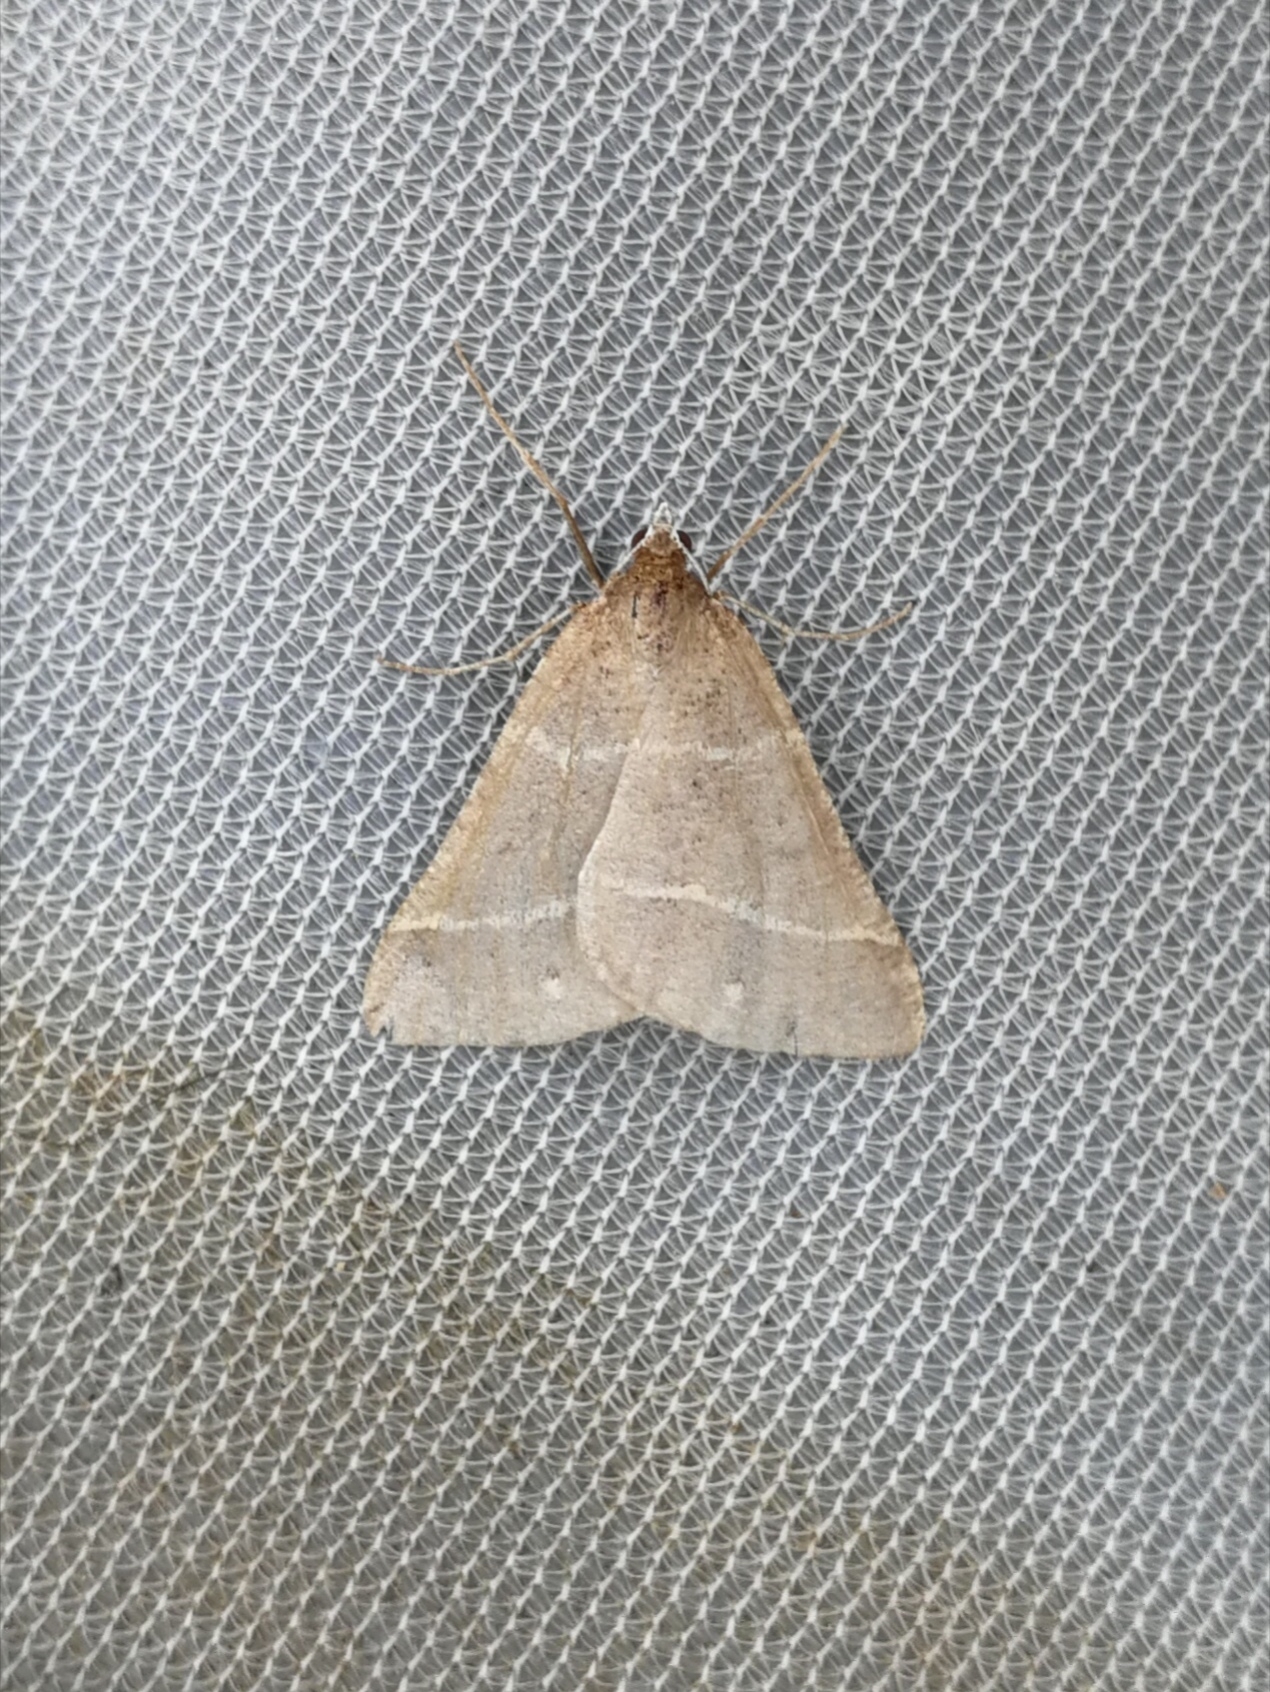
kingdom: Animalia
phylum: Arthropoda
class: Insecta
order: Lepidoptera
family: Pterophoridae
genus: Pterophorus
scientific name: Pterophorus Petrophora narbonea
